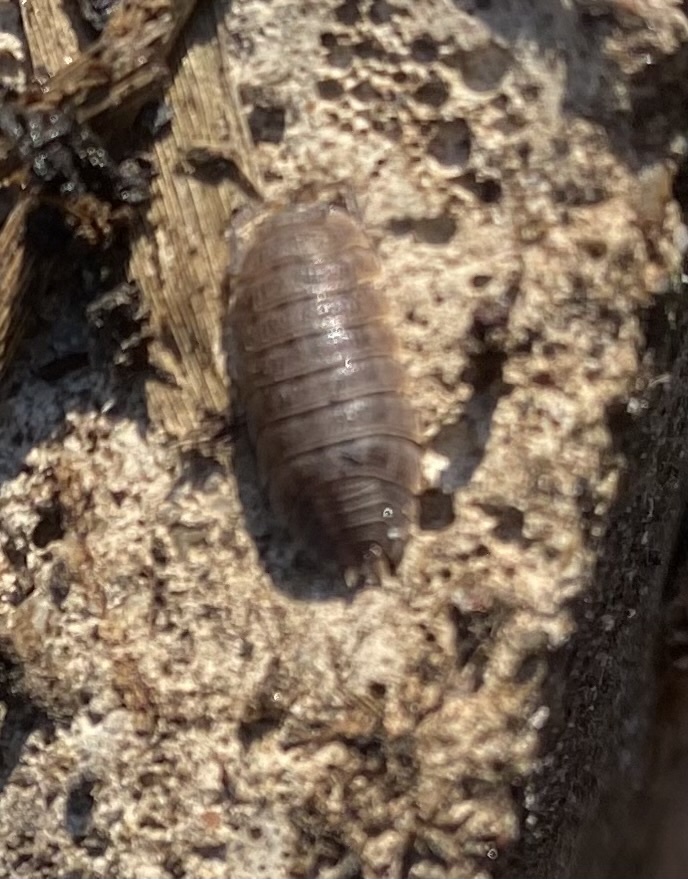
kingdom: Animalia
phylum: Arthropoda
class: Malacostraca
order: Isopoda
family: Trachelipodidae
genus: Trachelipus
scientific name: Trachelipus utrishensis
